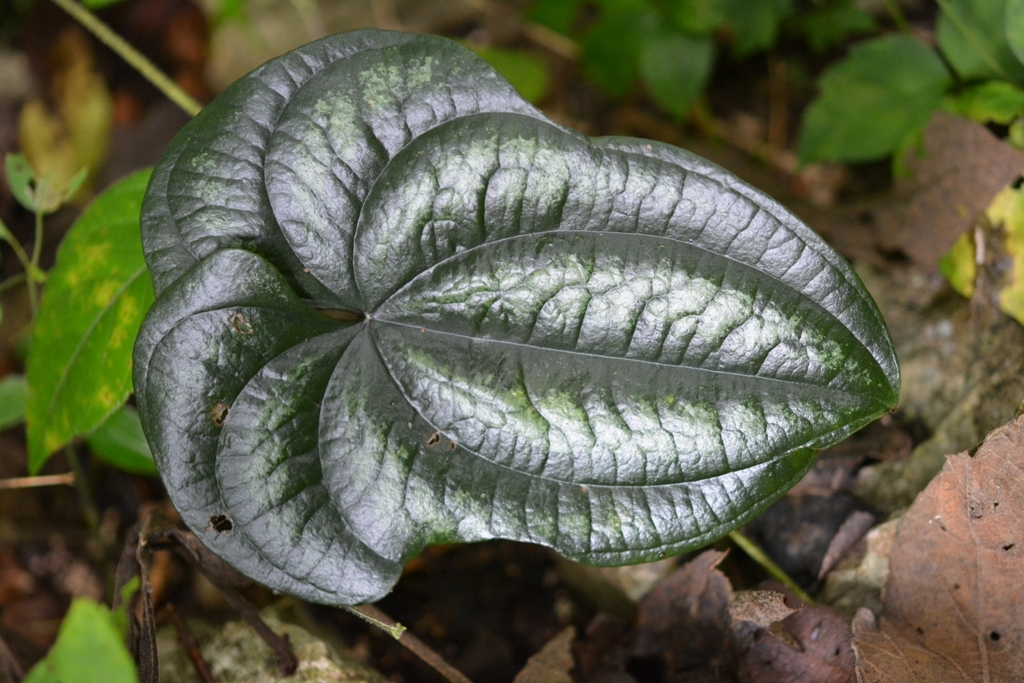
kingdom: Plantae
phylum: Tracheophyta
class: Liliopsida
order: Dioscoreales
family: Dioscoreaceae
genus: Dioscorea
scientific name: Dioscorea cyanisticta
